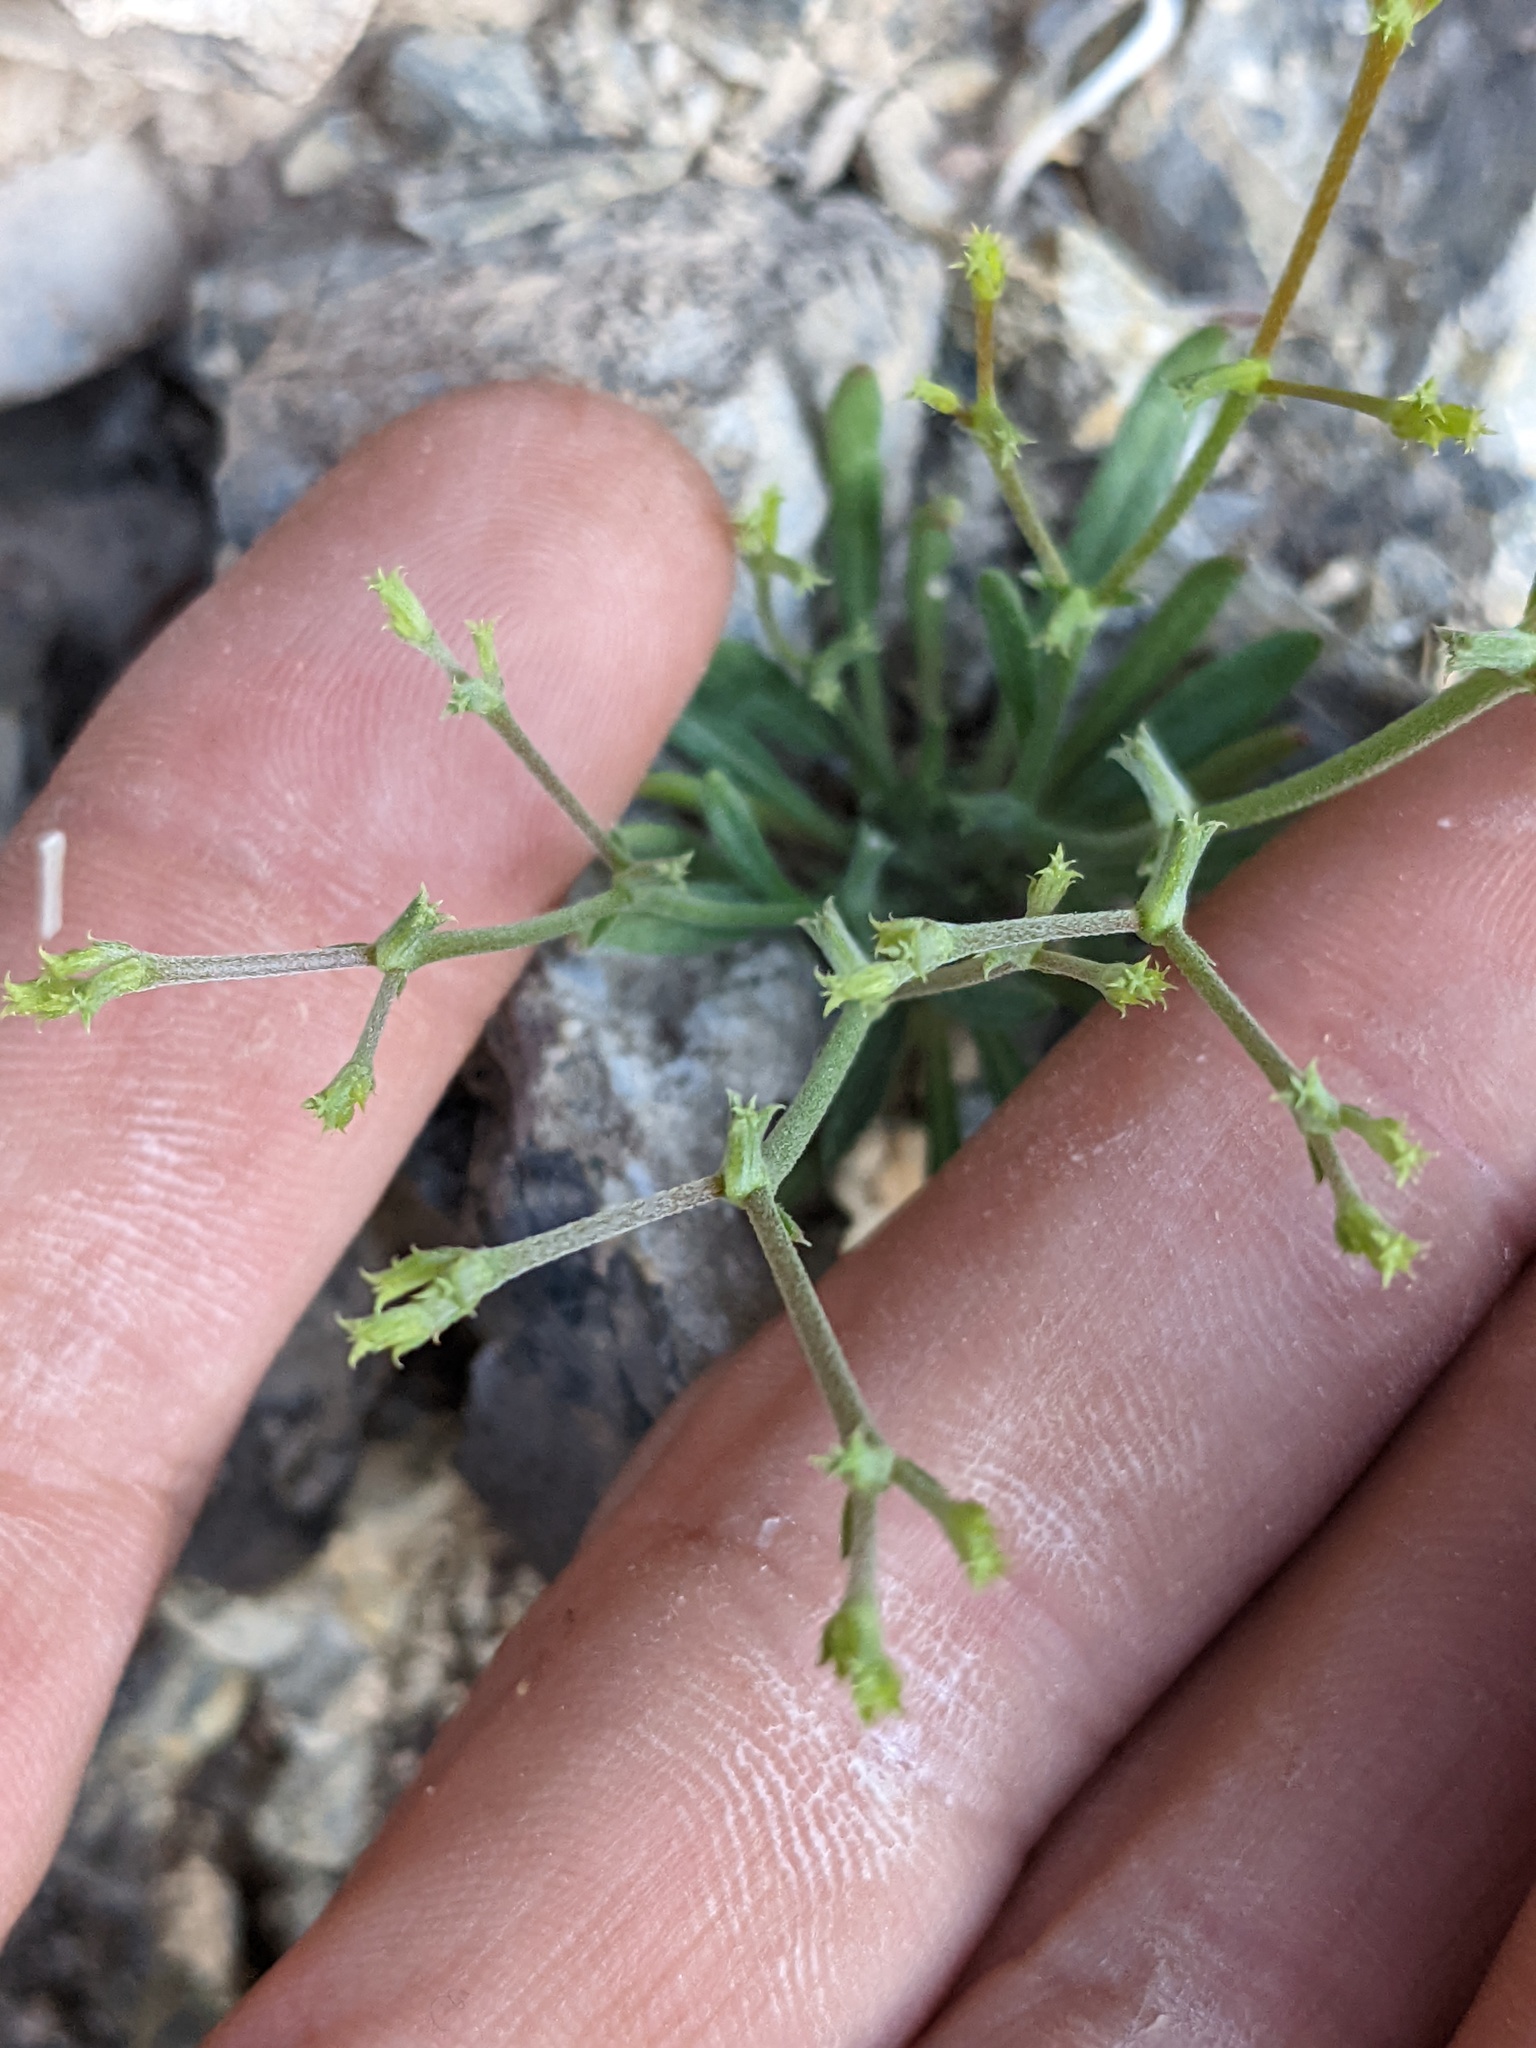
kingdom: Plantae
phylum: Tracheophyta
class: Magnoliopsida
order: Caryophyllales
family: Polygonaceae
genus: Chorizanthe
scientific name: Chorizanthe brevicornu
